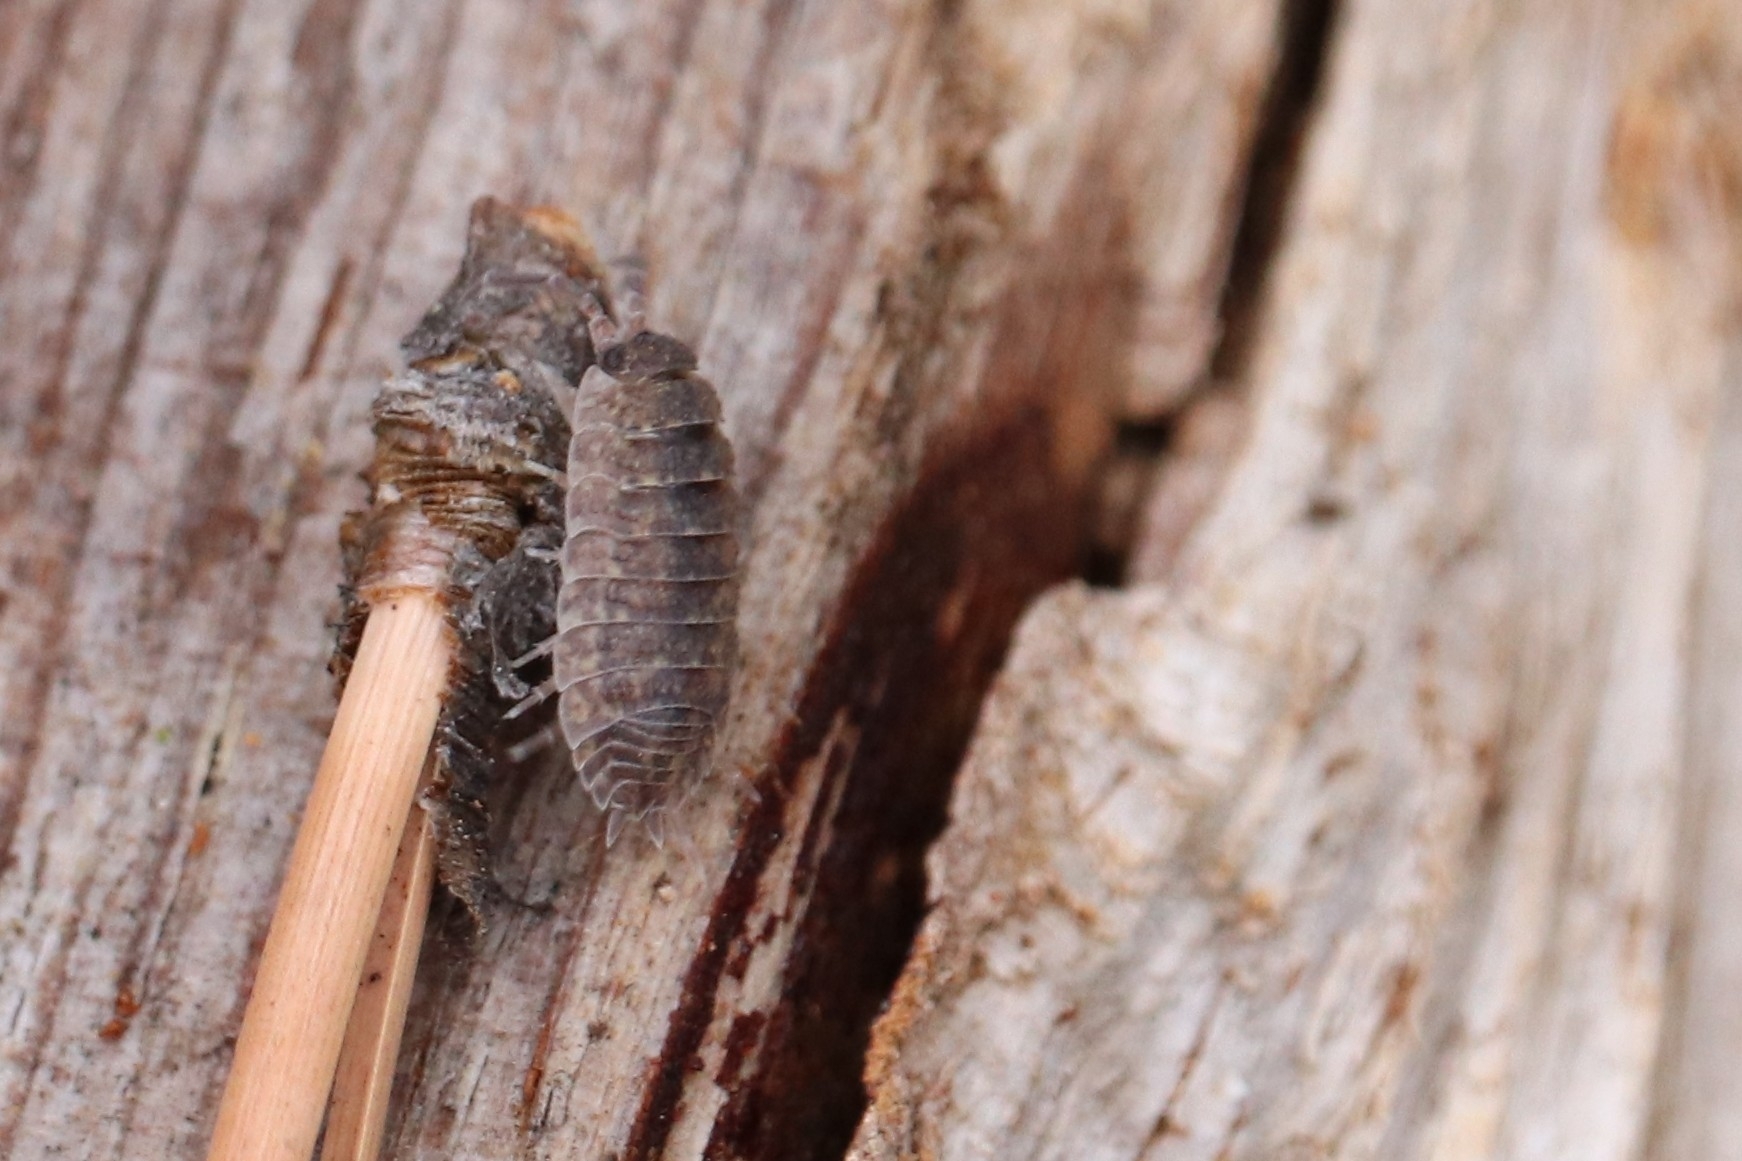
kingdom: Animalia
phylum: Arthropoda
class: Malacostraca
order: Isopoda
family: Porcellionidae
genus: Porcellio
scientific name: Porcellio scaber
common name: Common rough woodlouse
